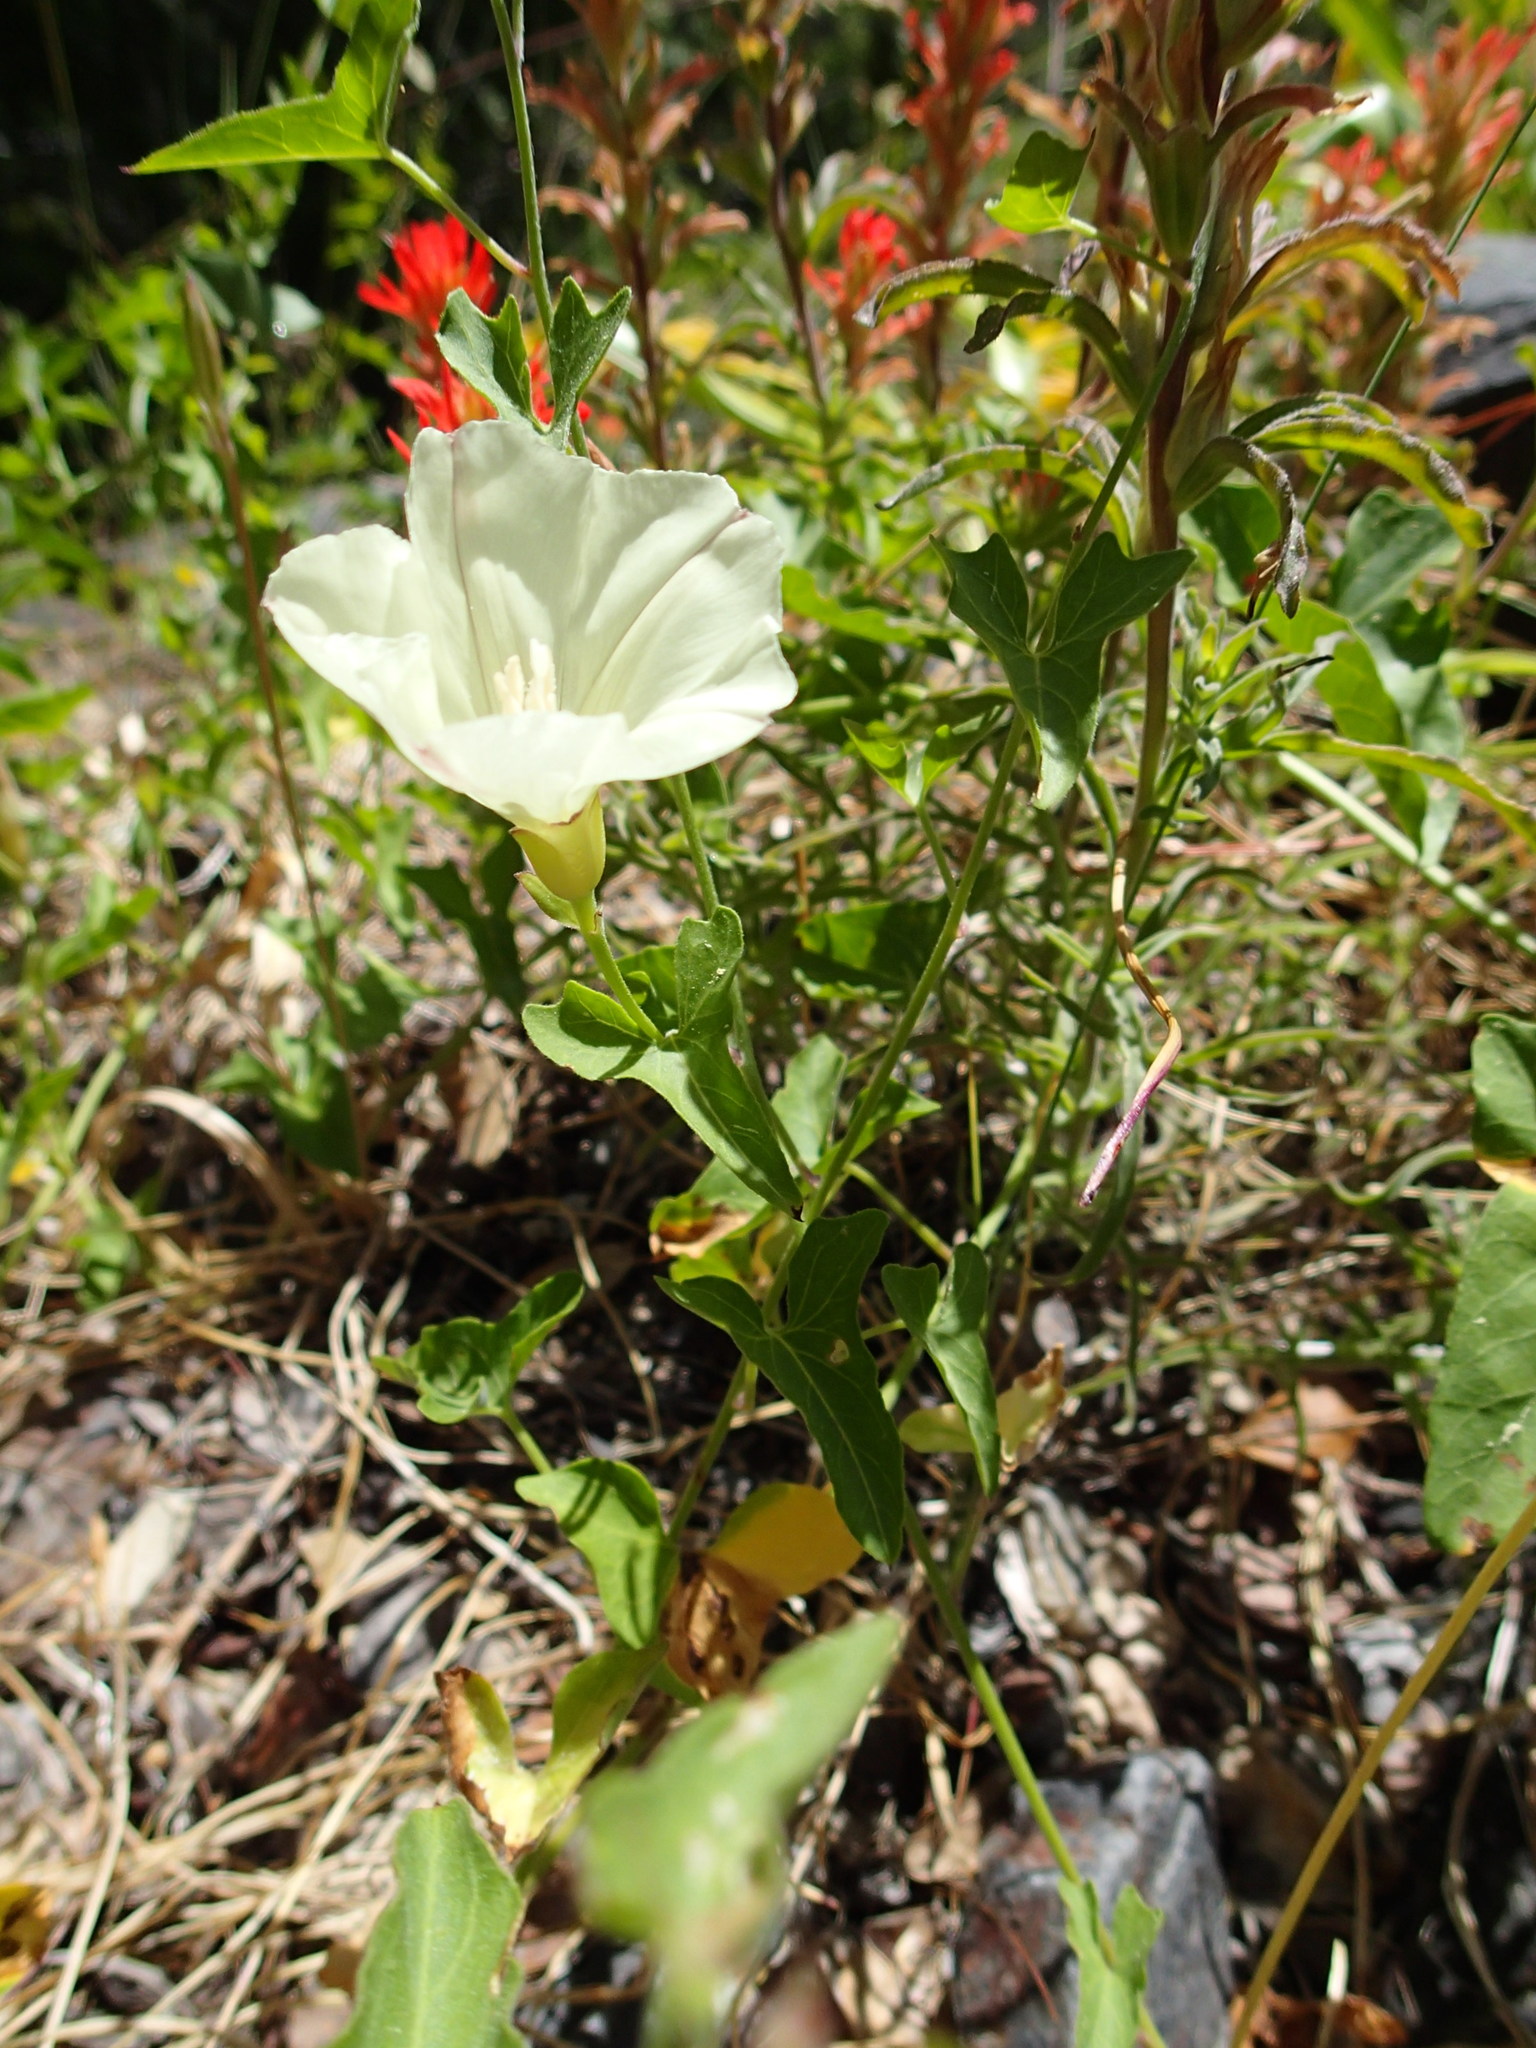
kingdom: Plantae
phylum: Tracheophyta
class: Magnoliopsida
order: Solanales
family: Convolvulaceae
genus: Calystegia
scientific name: Calystegia occidentalis
